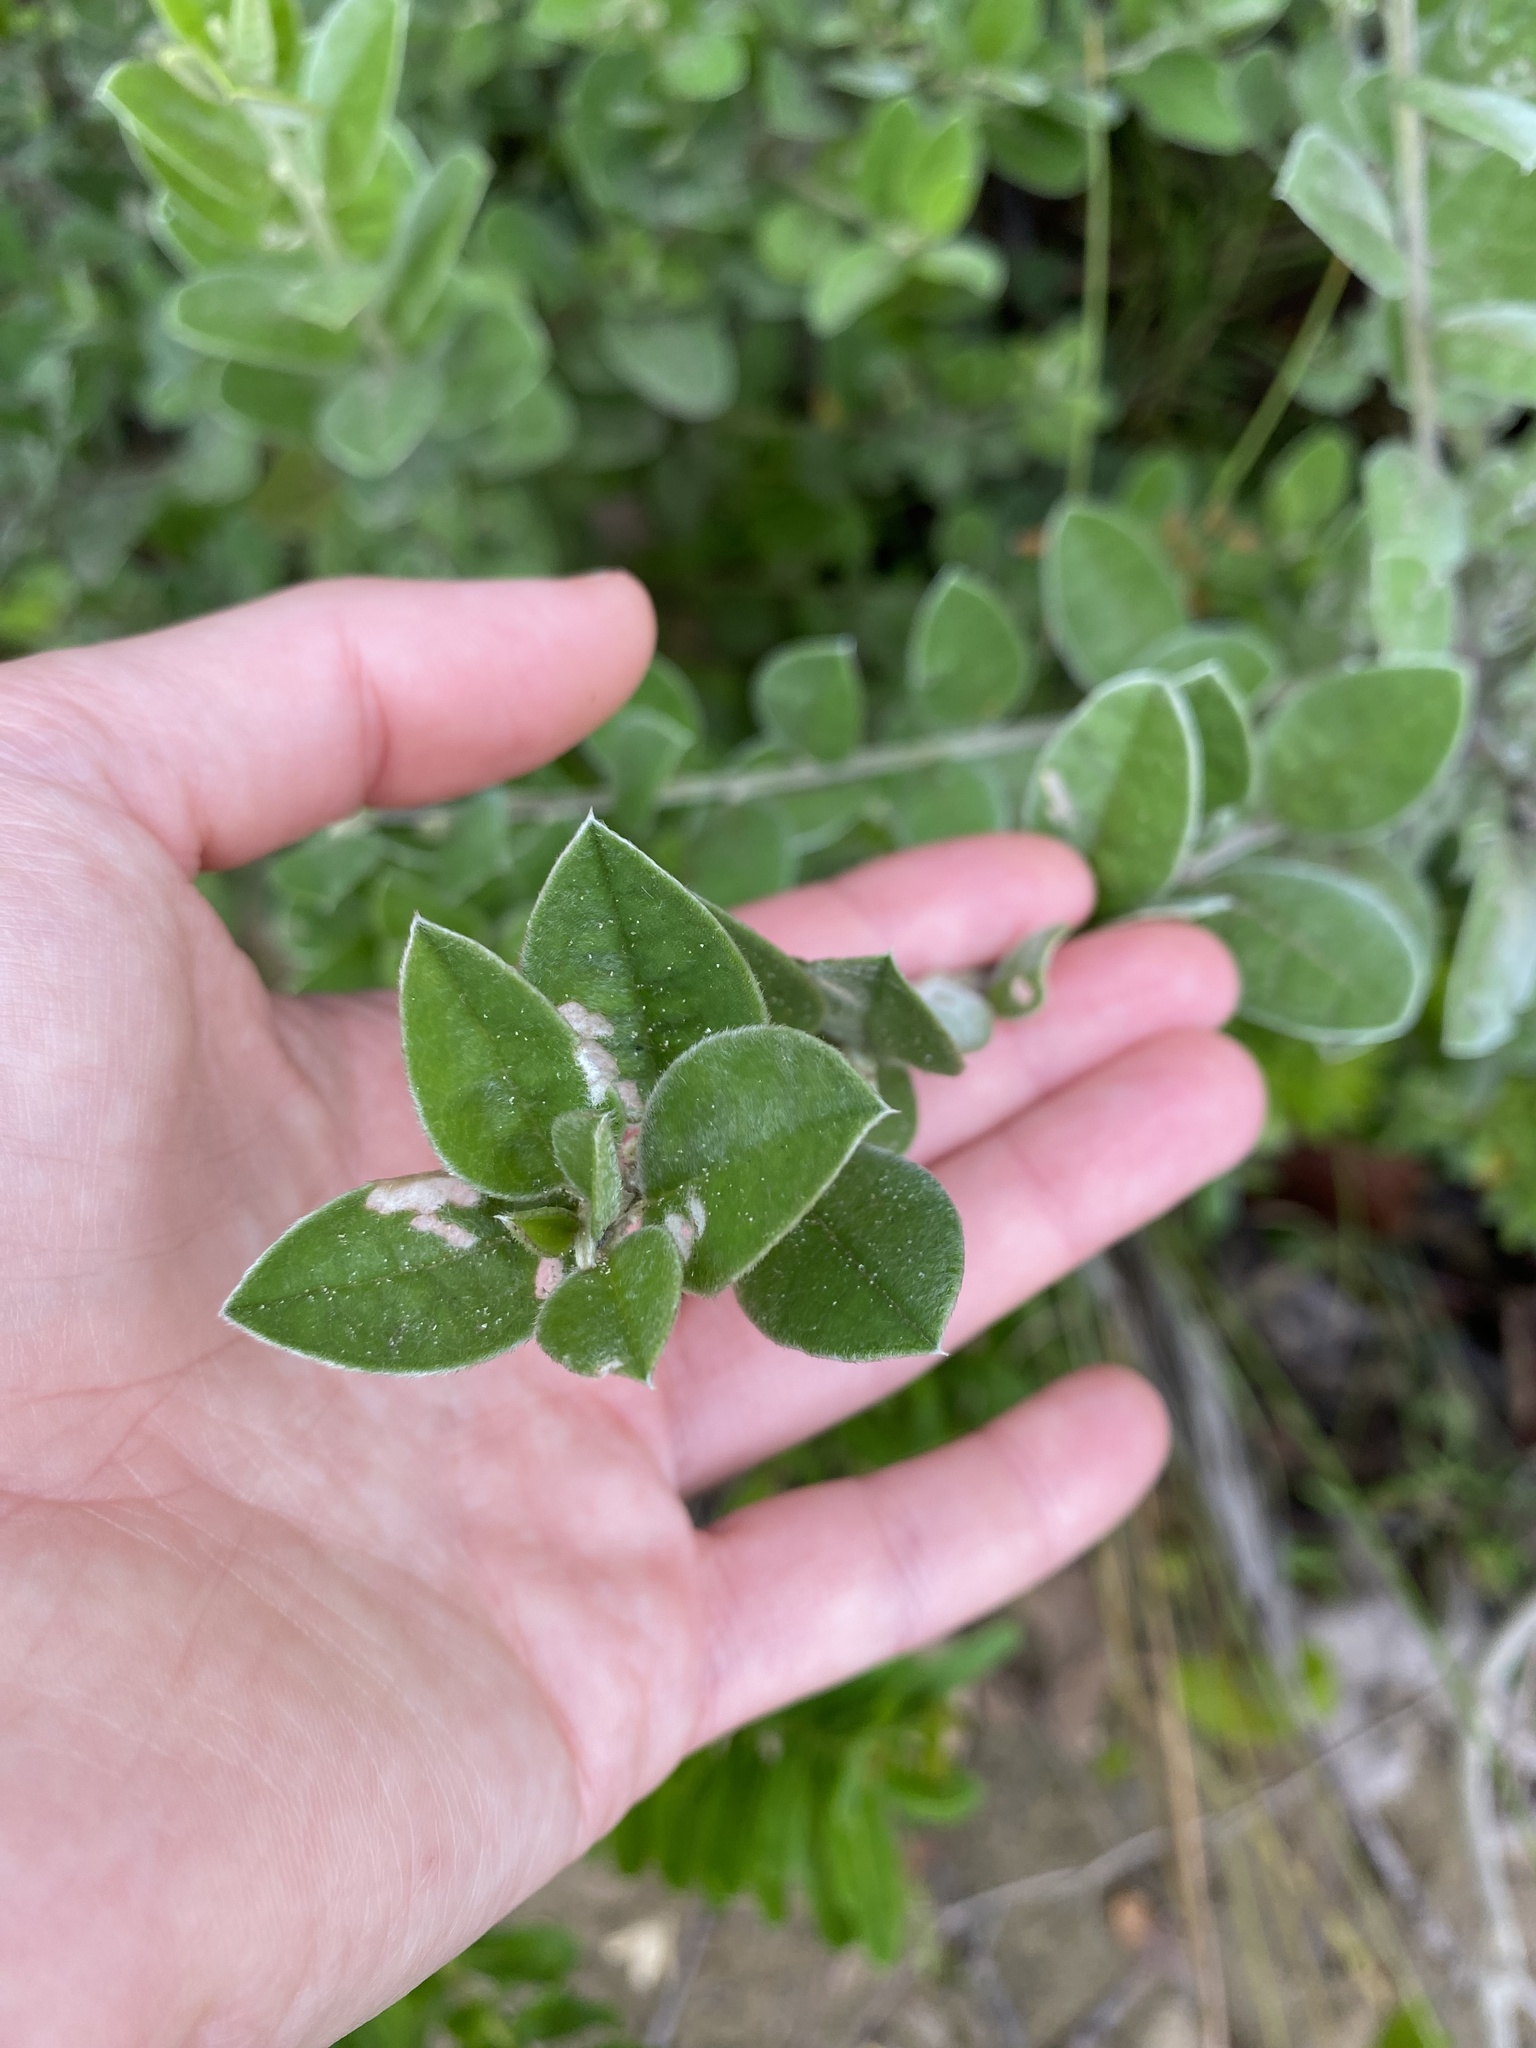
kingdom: Plantae
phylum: Tracheophyta
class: Magnoliopsida
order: Fabales
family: Fabaceae
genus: Podalyria
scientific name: Podalyria burchellii
